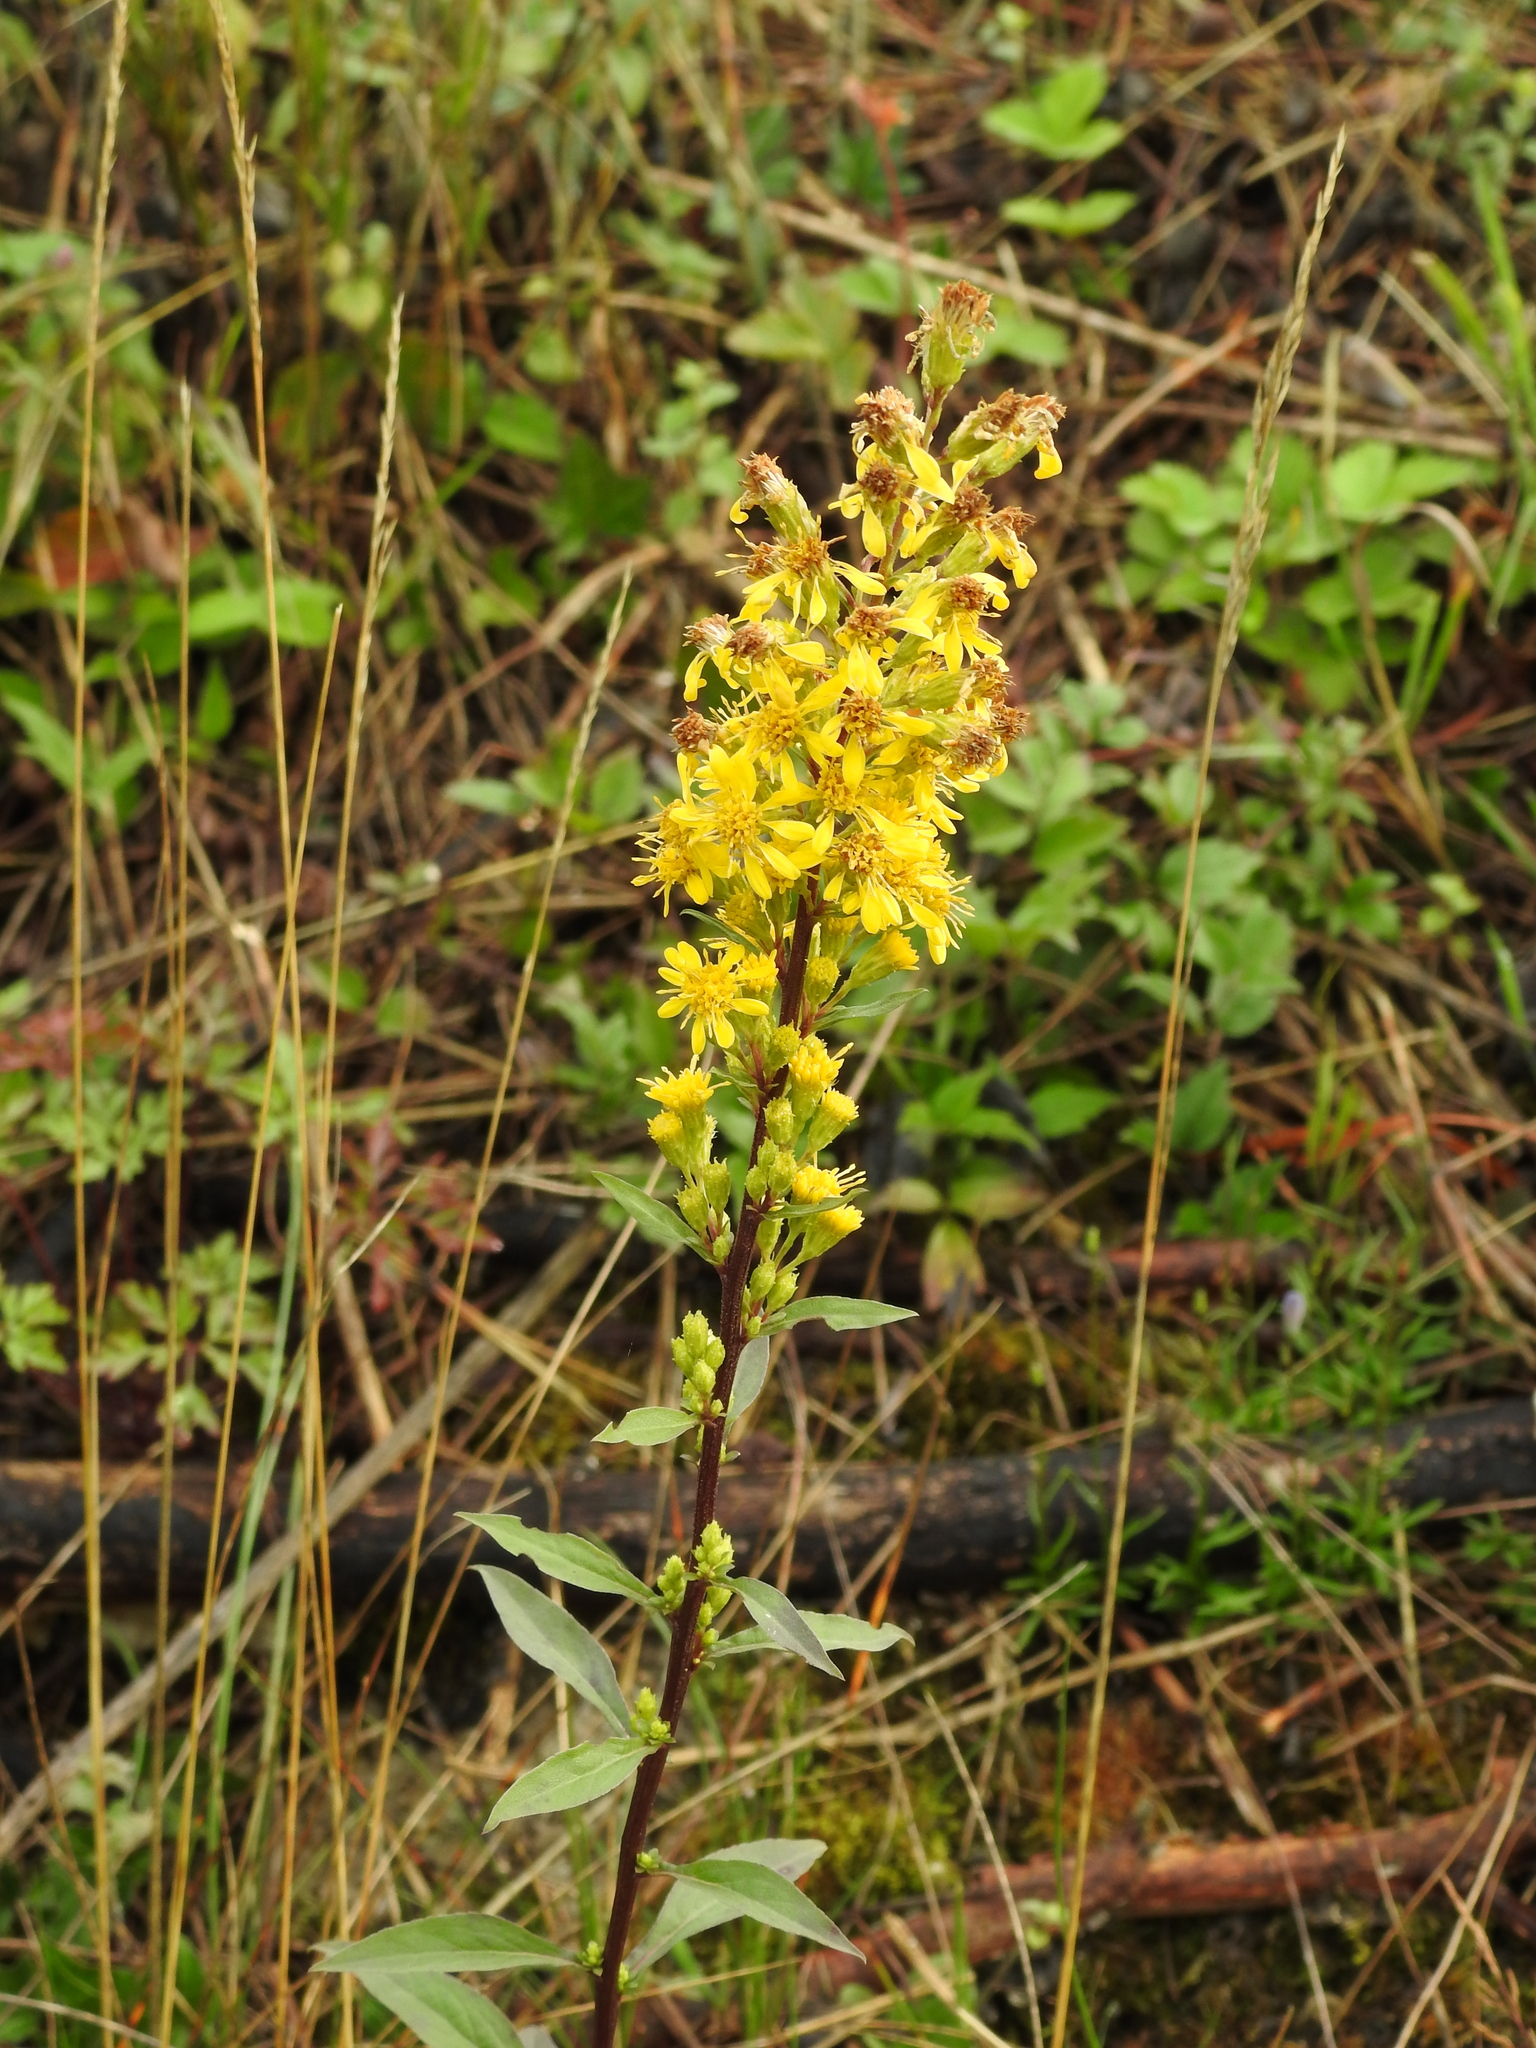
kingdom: Plantae
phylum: Tracheophyta
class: Magnoliopsida
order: Asterales
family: Asteraceae
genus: Solidago
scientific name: Solidago virgaurea
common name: Goldenrod
